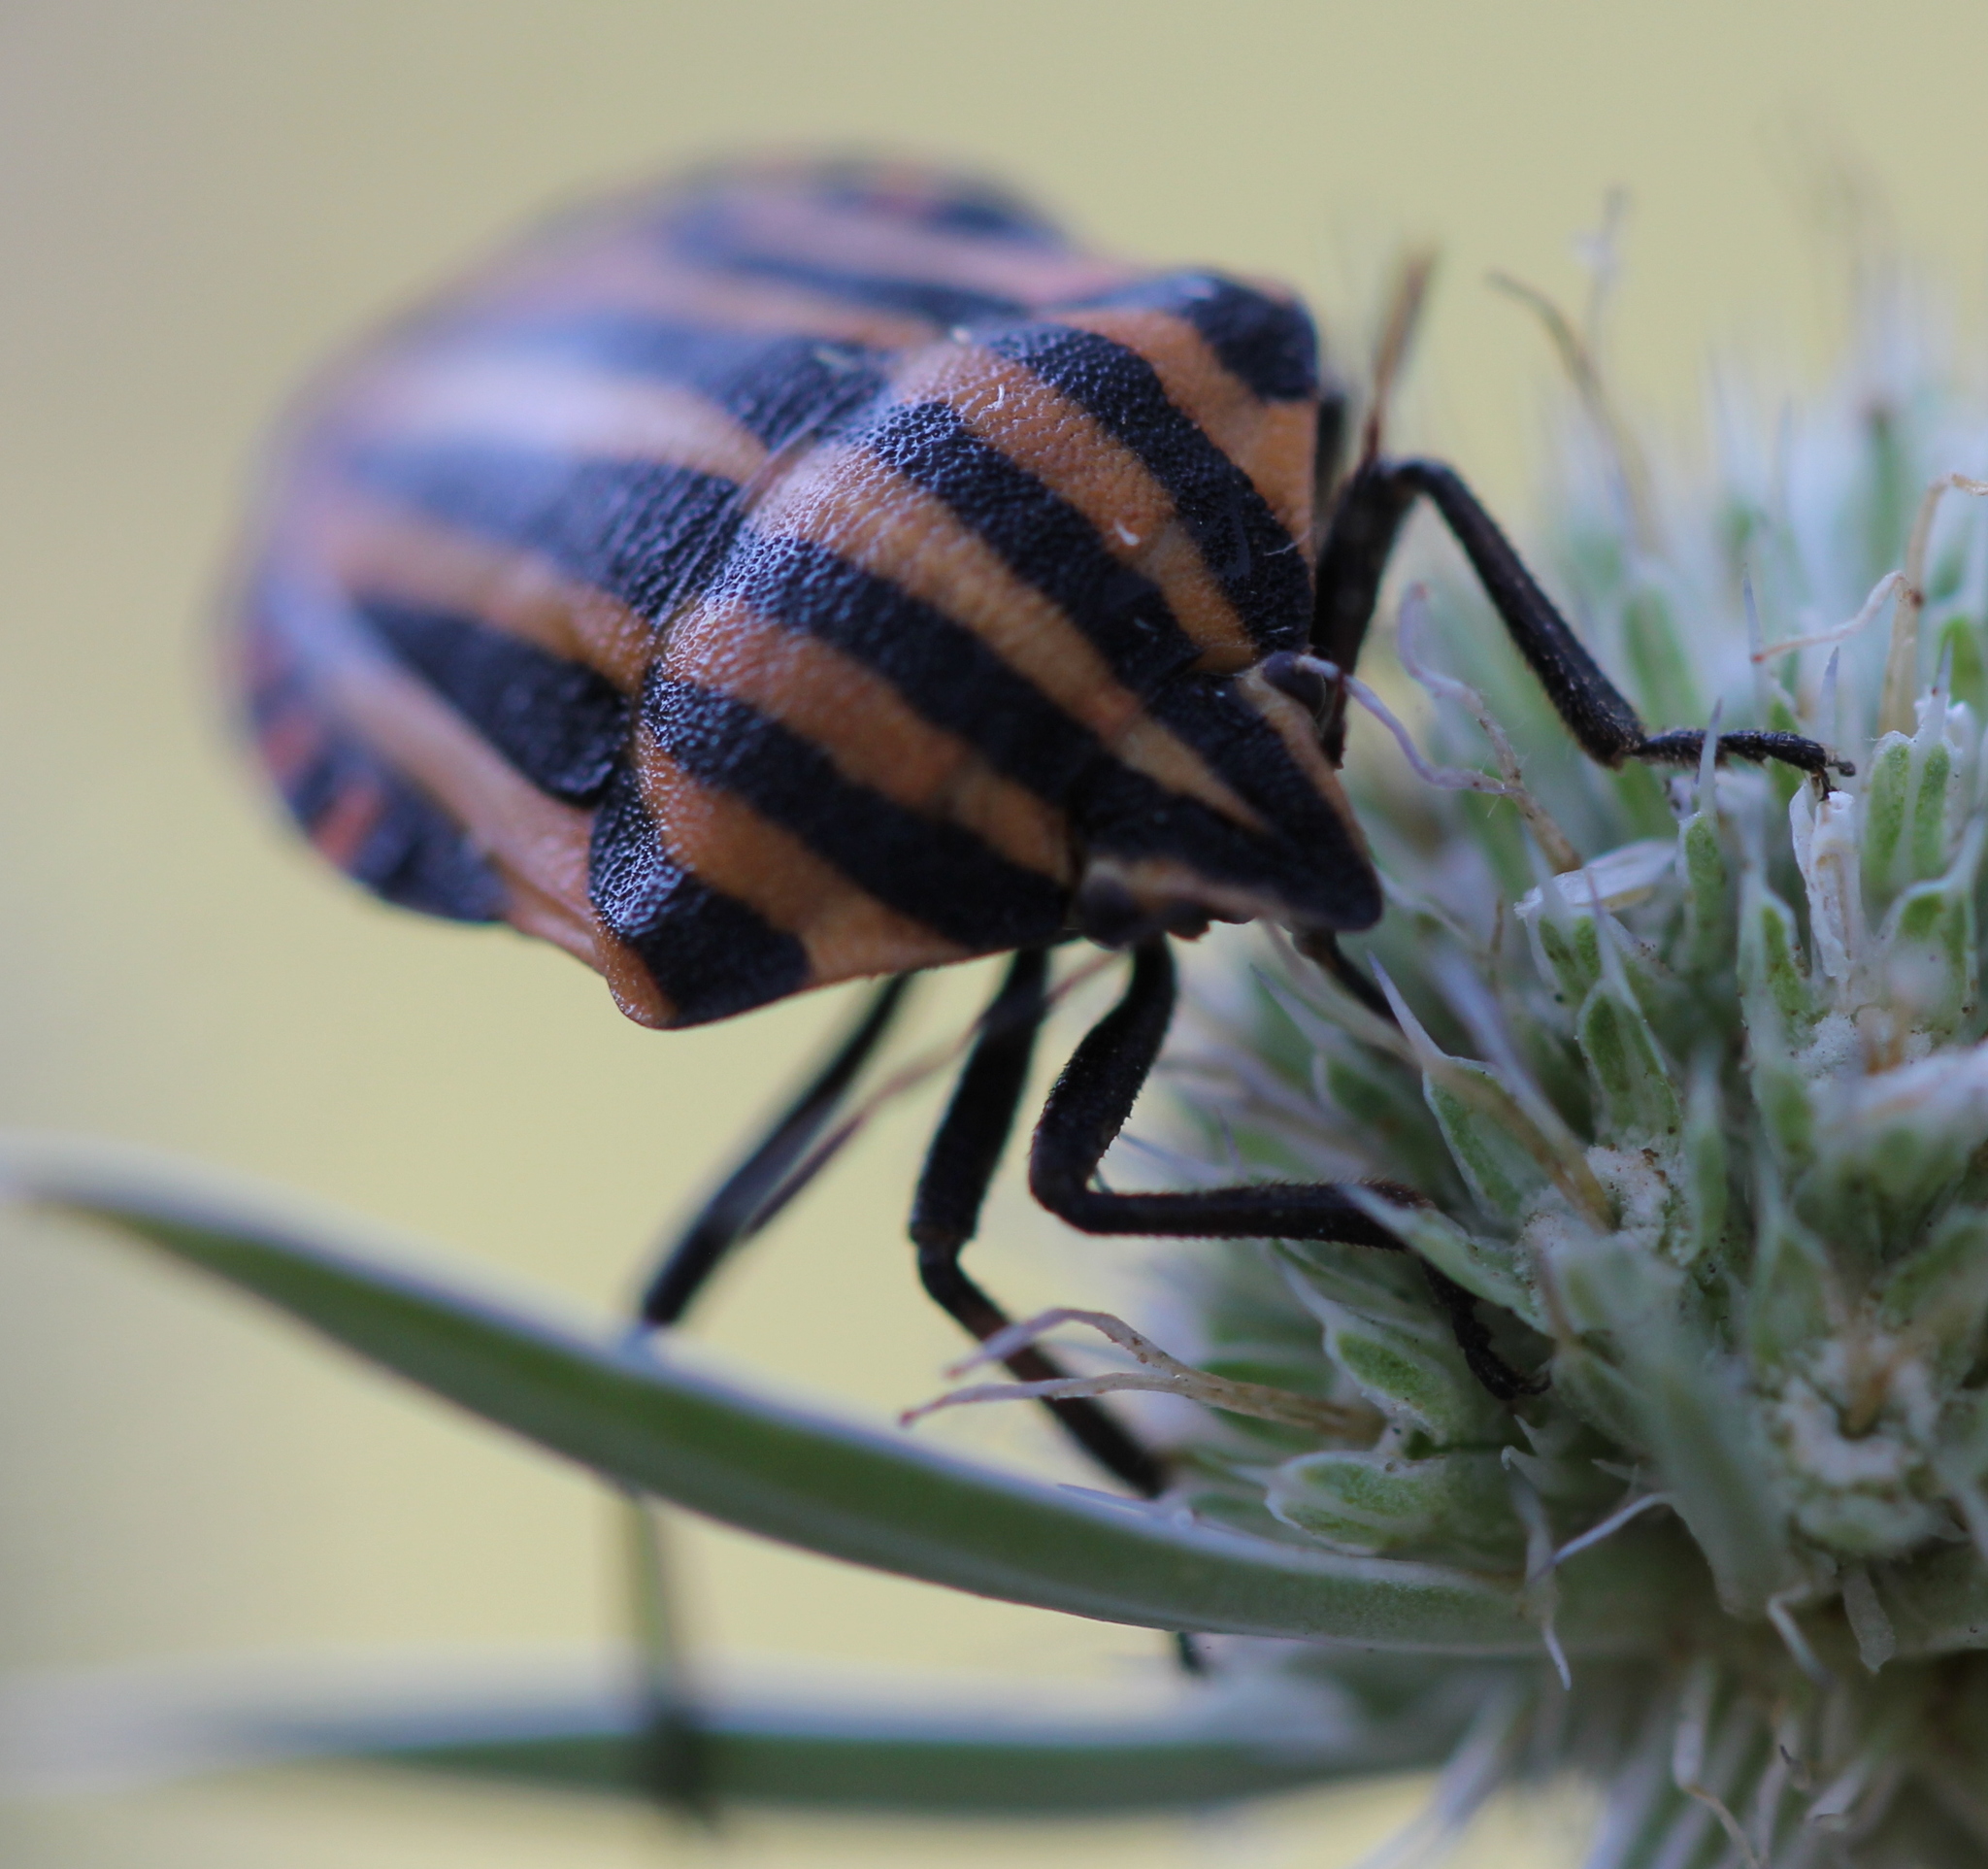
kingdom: Animalia
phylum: Arthropoda
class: Insecta
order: Hemiptera
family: Pentatomidae
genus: Graphosoma
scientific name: Graphosoma italicum
